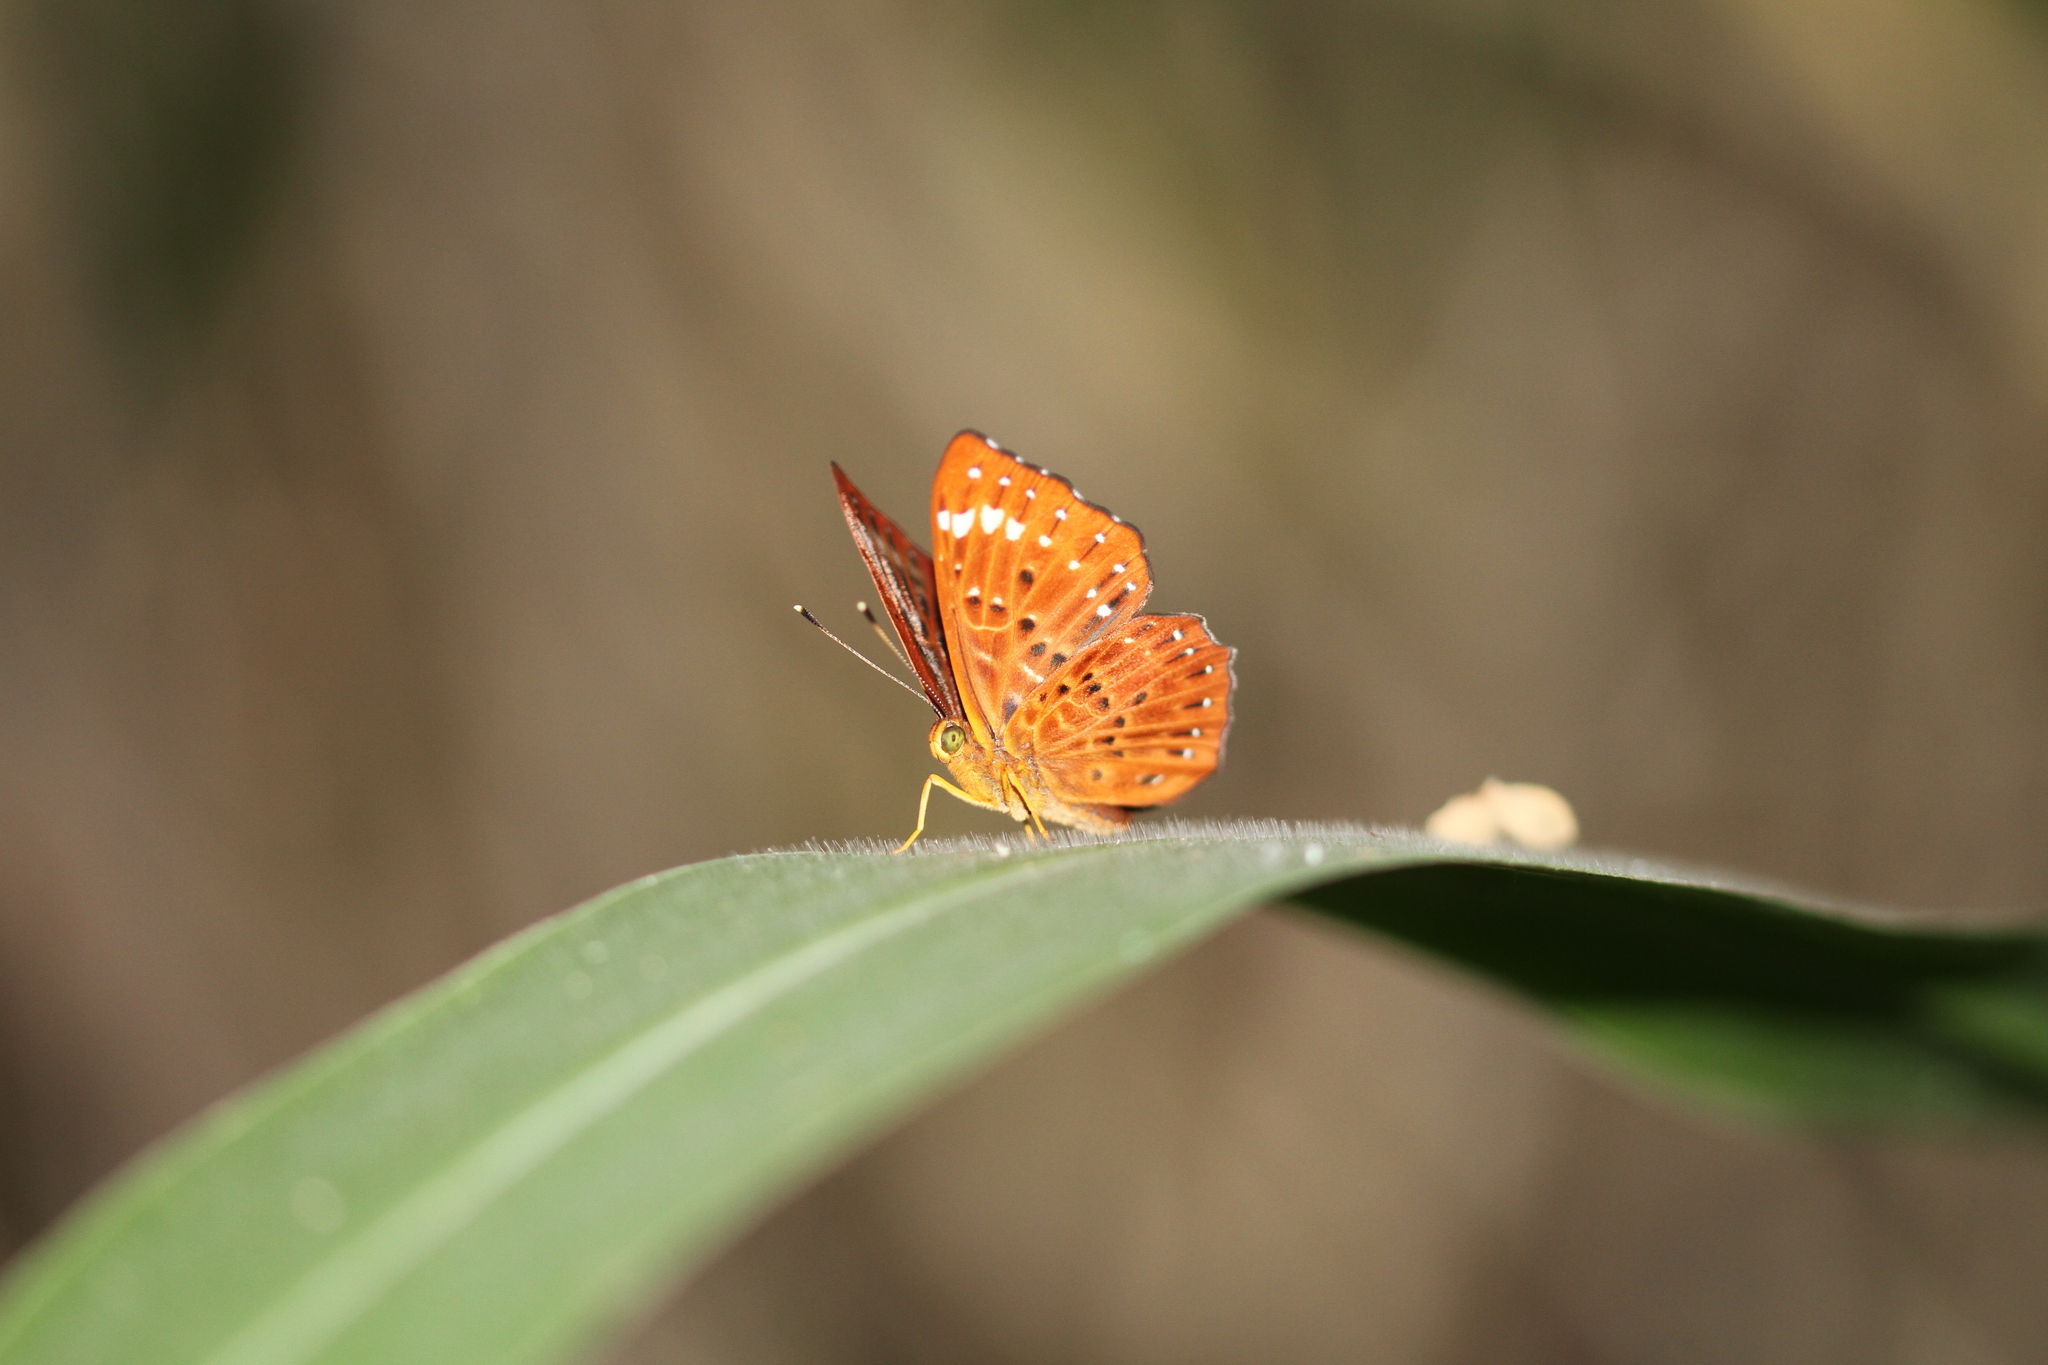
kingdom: Animalia
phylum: Arthropoda
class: Insecta
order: Lepidoptera
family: Riodinidae
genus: Zemeros
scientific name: Zemeros flegyas
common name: Punchinello
